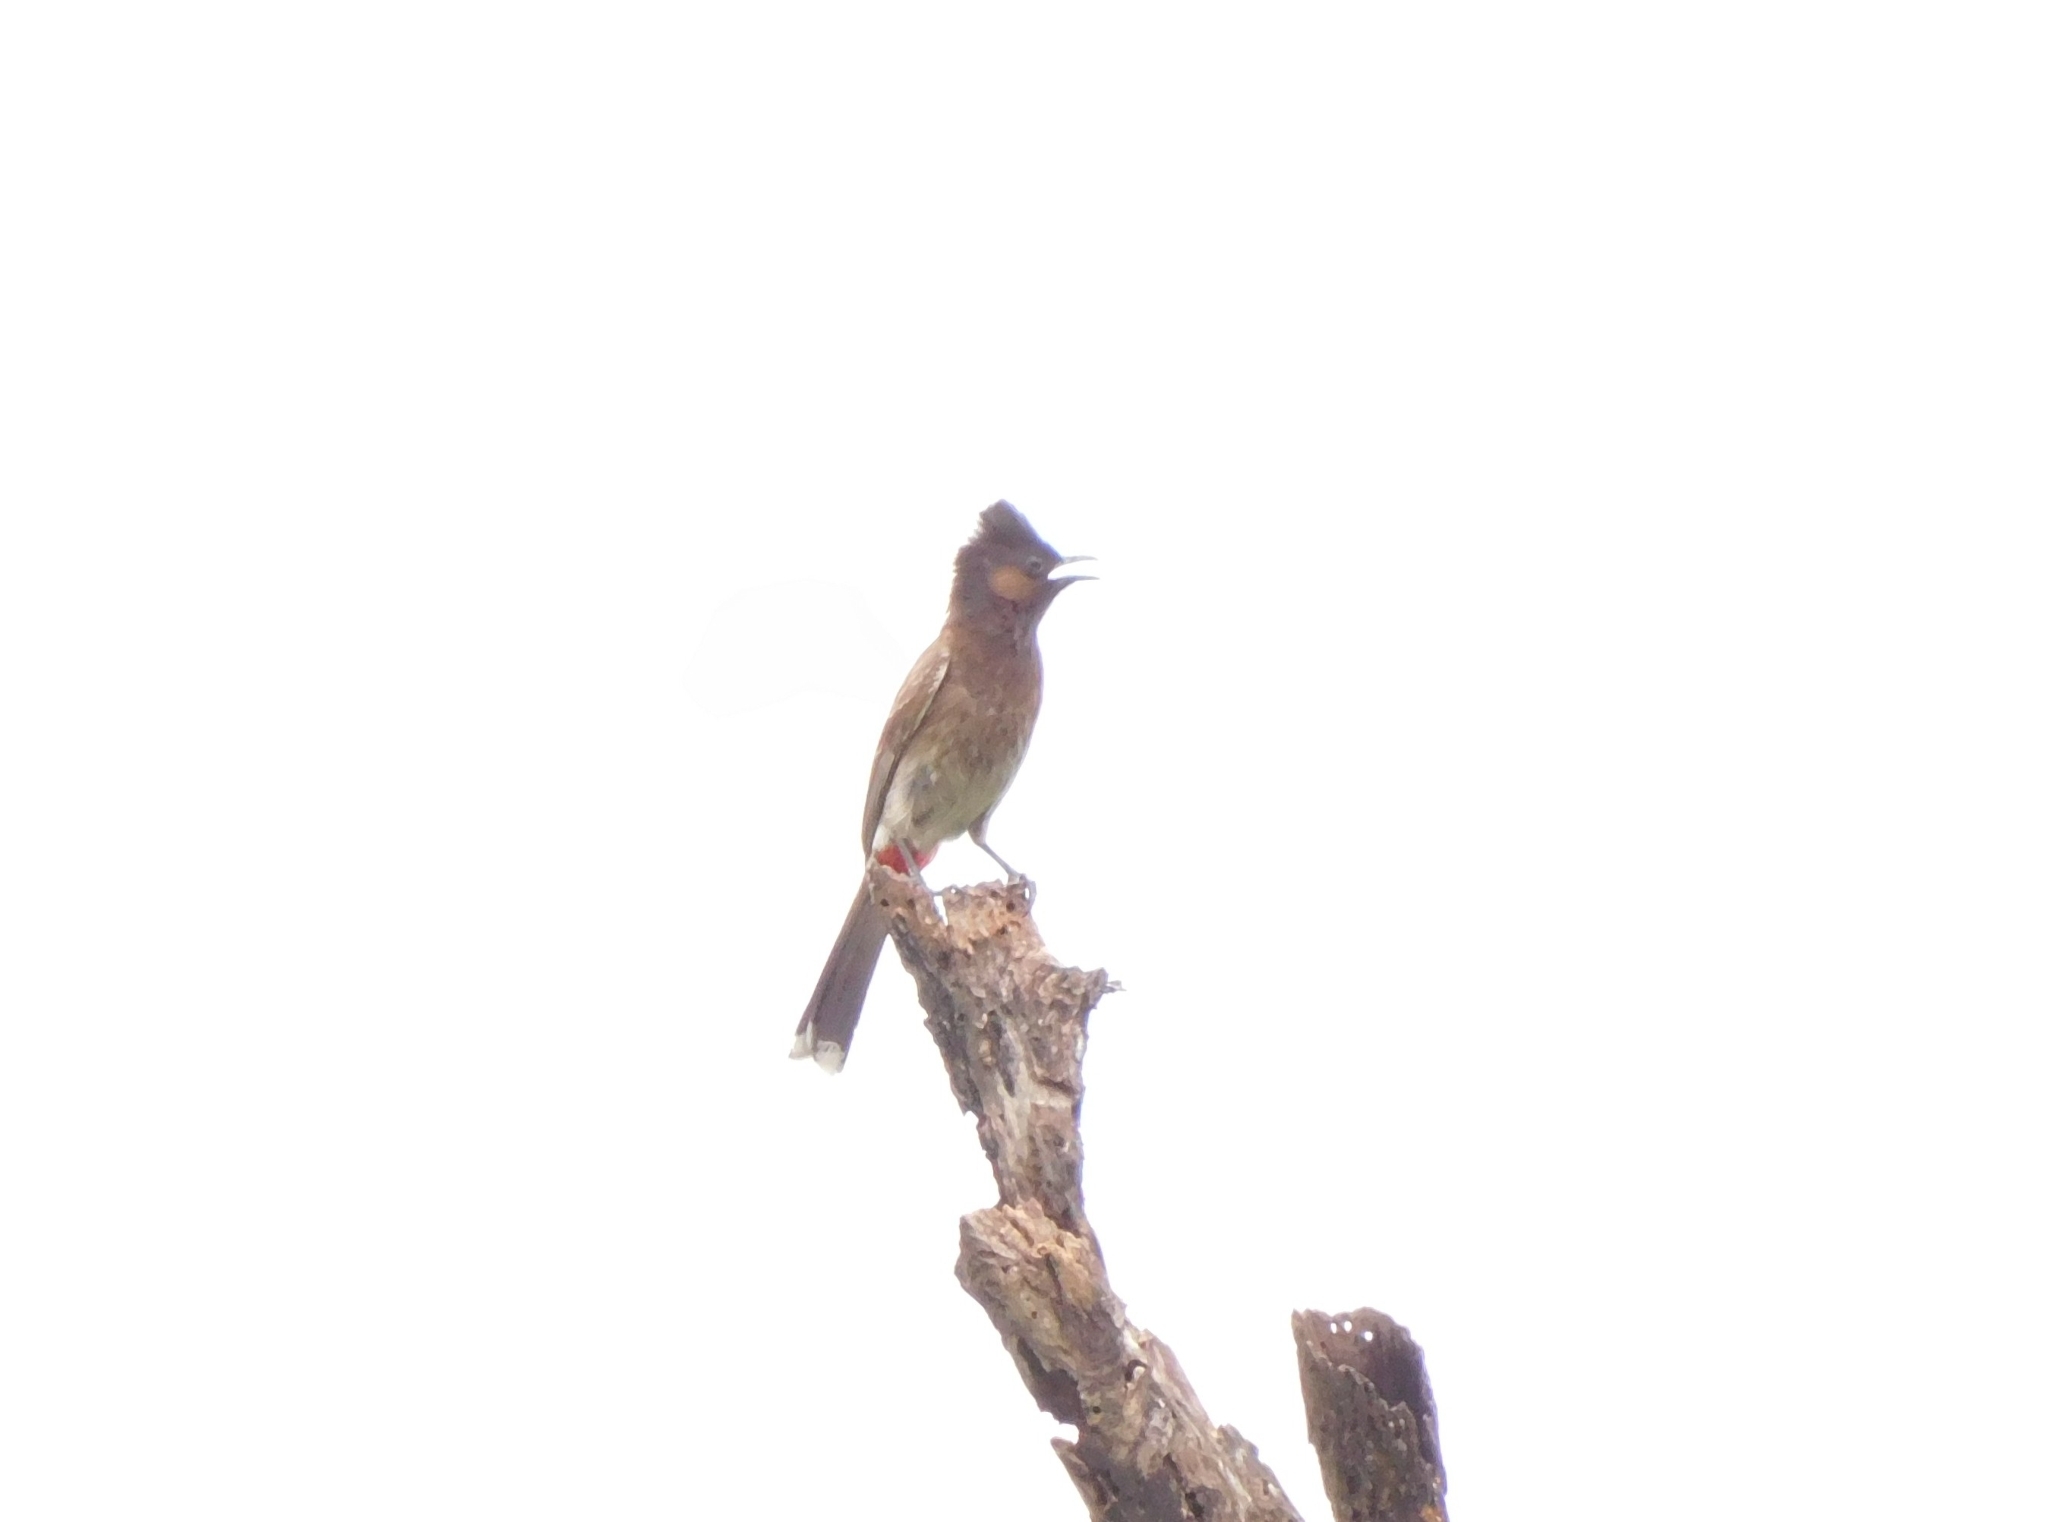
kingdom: Animalia
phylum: Chordata
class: Aves
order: Passeriformes
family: Pycnonotidae
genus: Pycnonotus
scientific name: Pycnonotus cafer
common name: Red-vented bulbul
